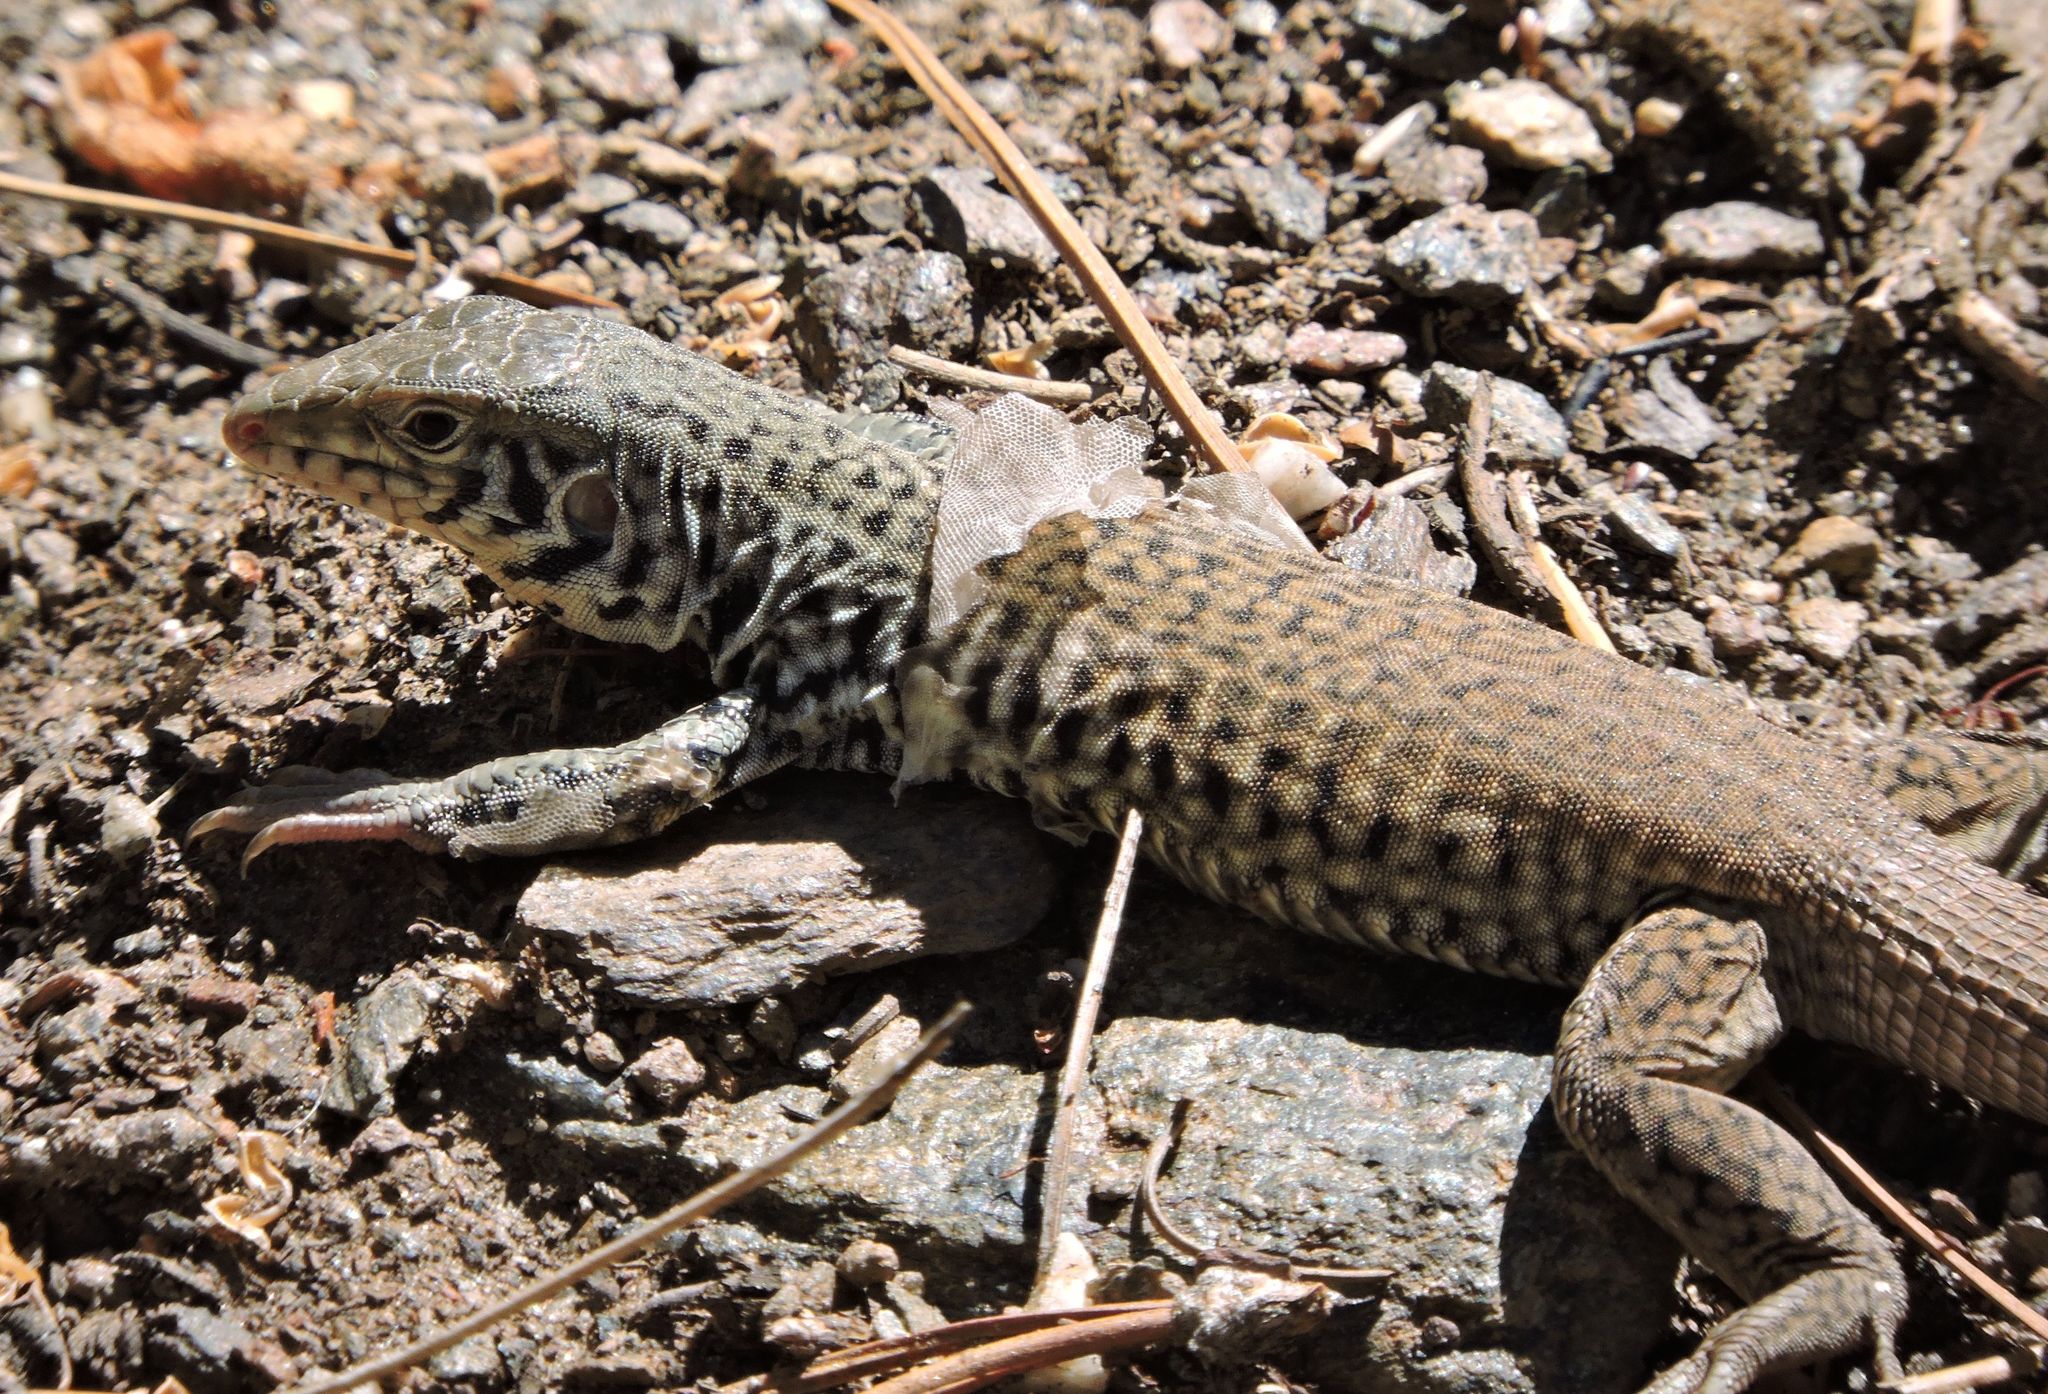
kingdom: Animalia
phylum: Chordata
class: Squamata
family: Teiidae
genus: Aspidoscelis
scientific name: Aspidoscelis tigris
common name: Tiger whiptail
